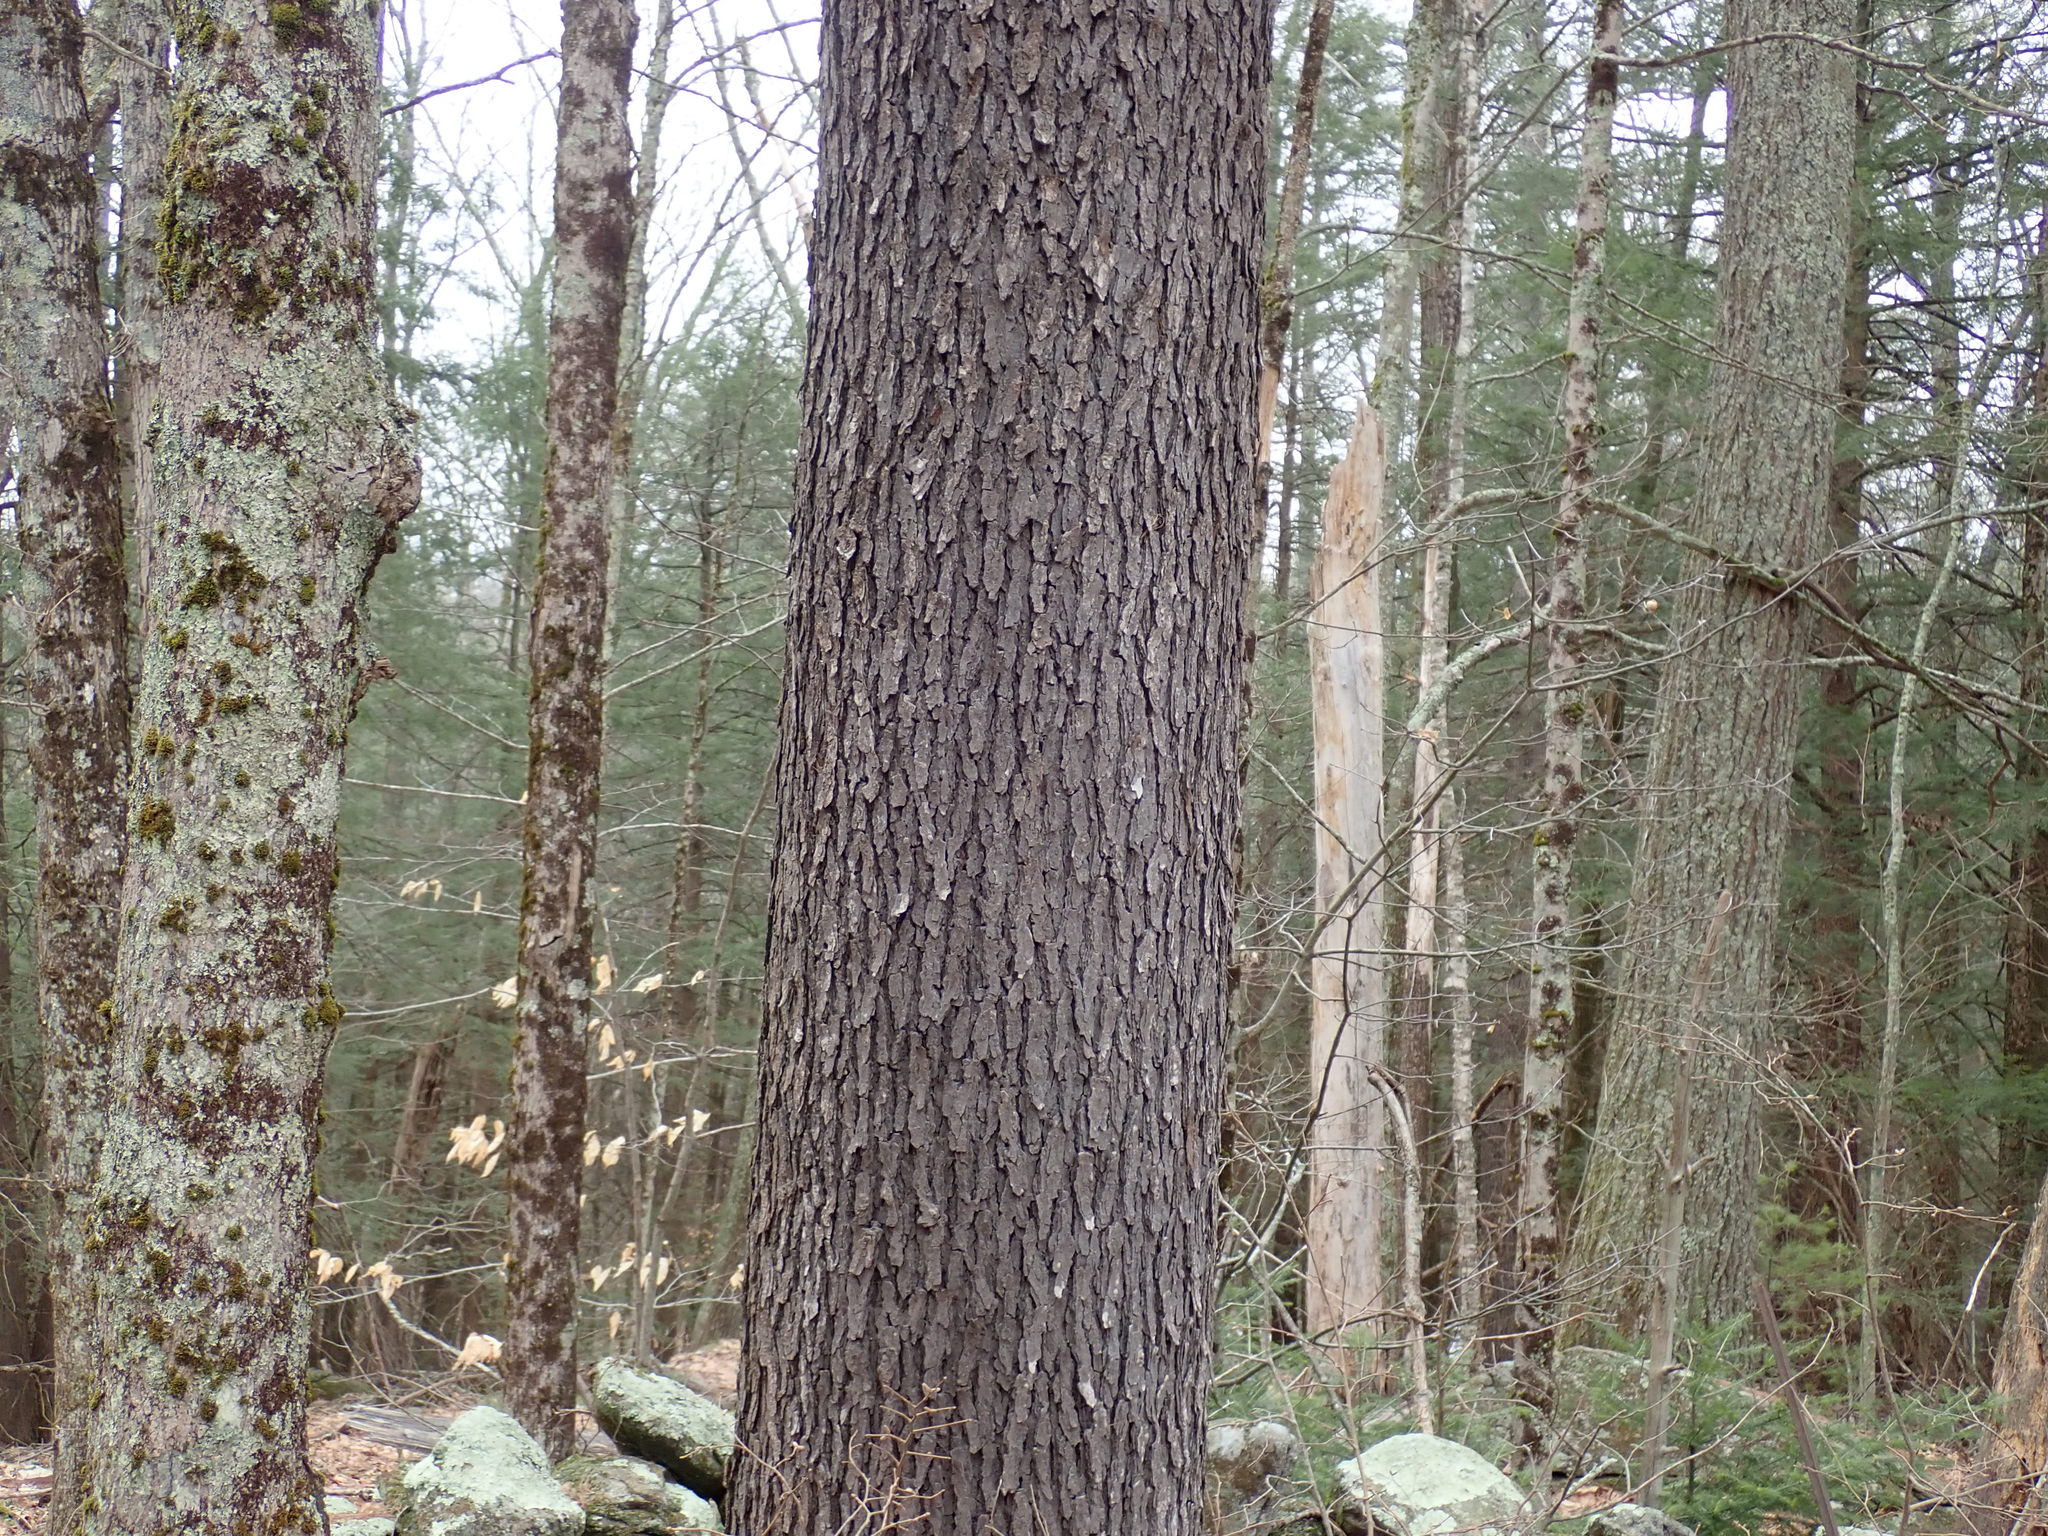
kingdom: Plantae
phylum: Tracheophyta
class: Magnoliopsida
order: Rosales
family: Rosaceae
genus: Prunus
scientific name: Prunus serotina
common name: Black cherry
